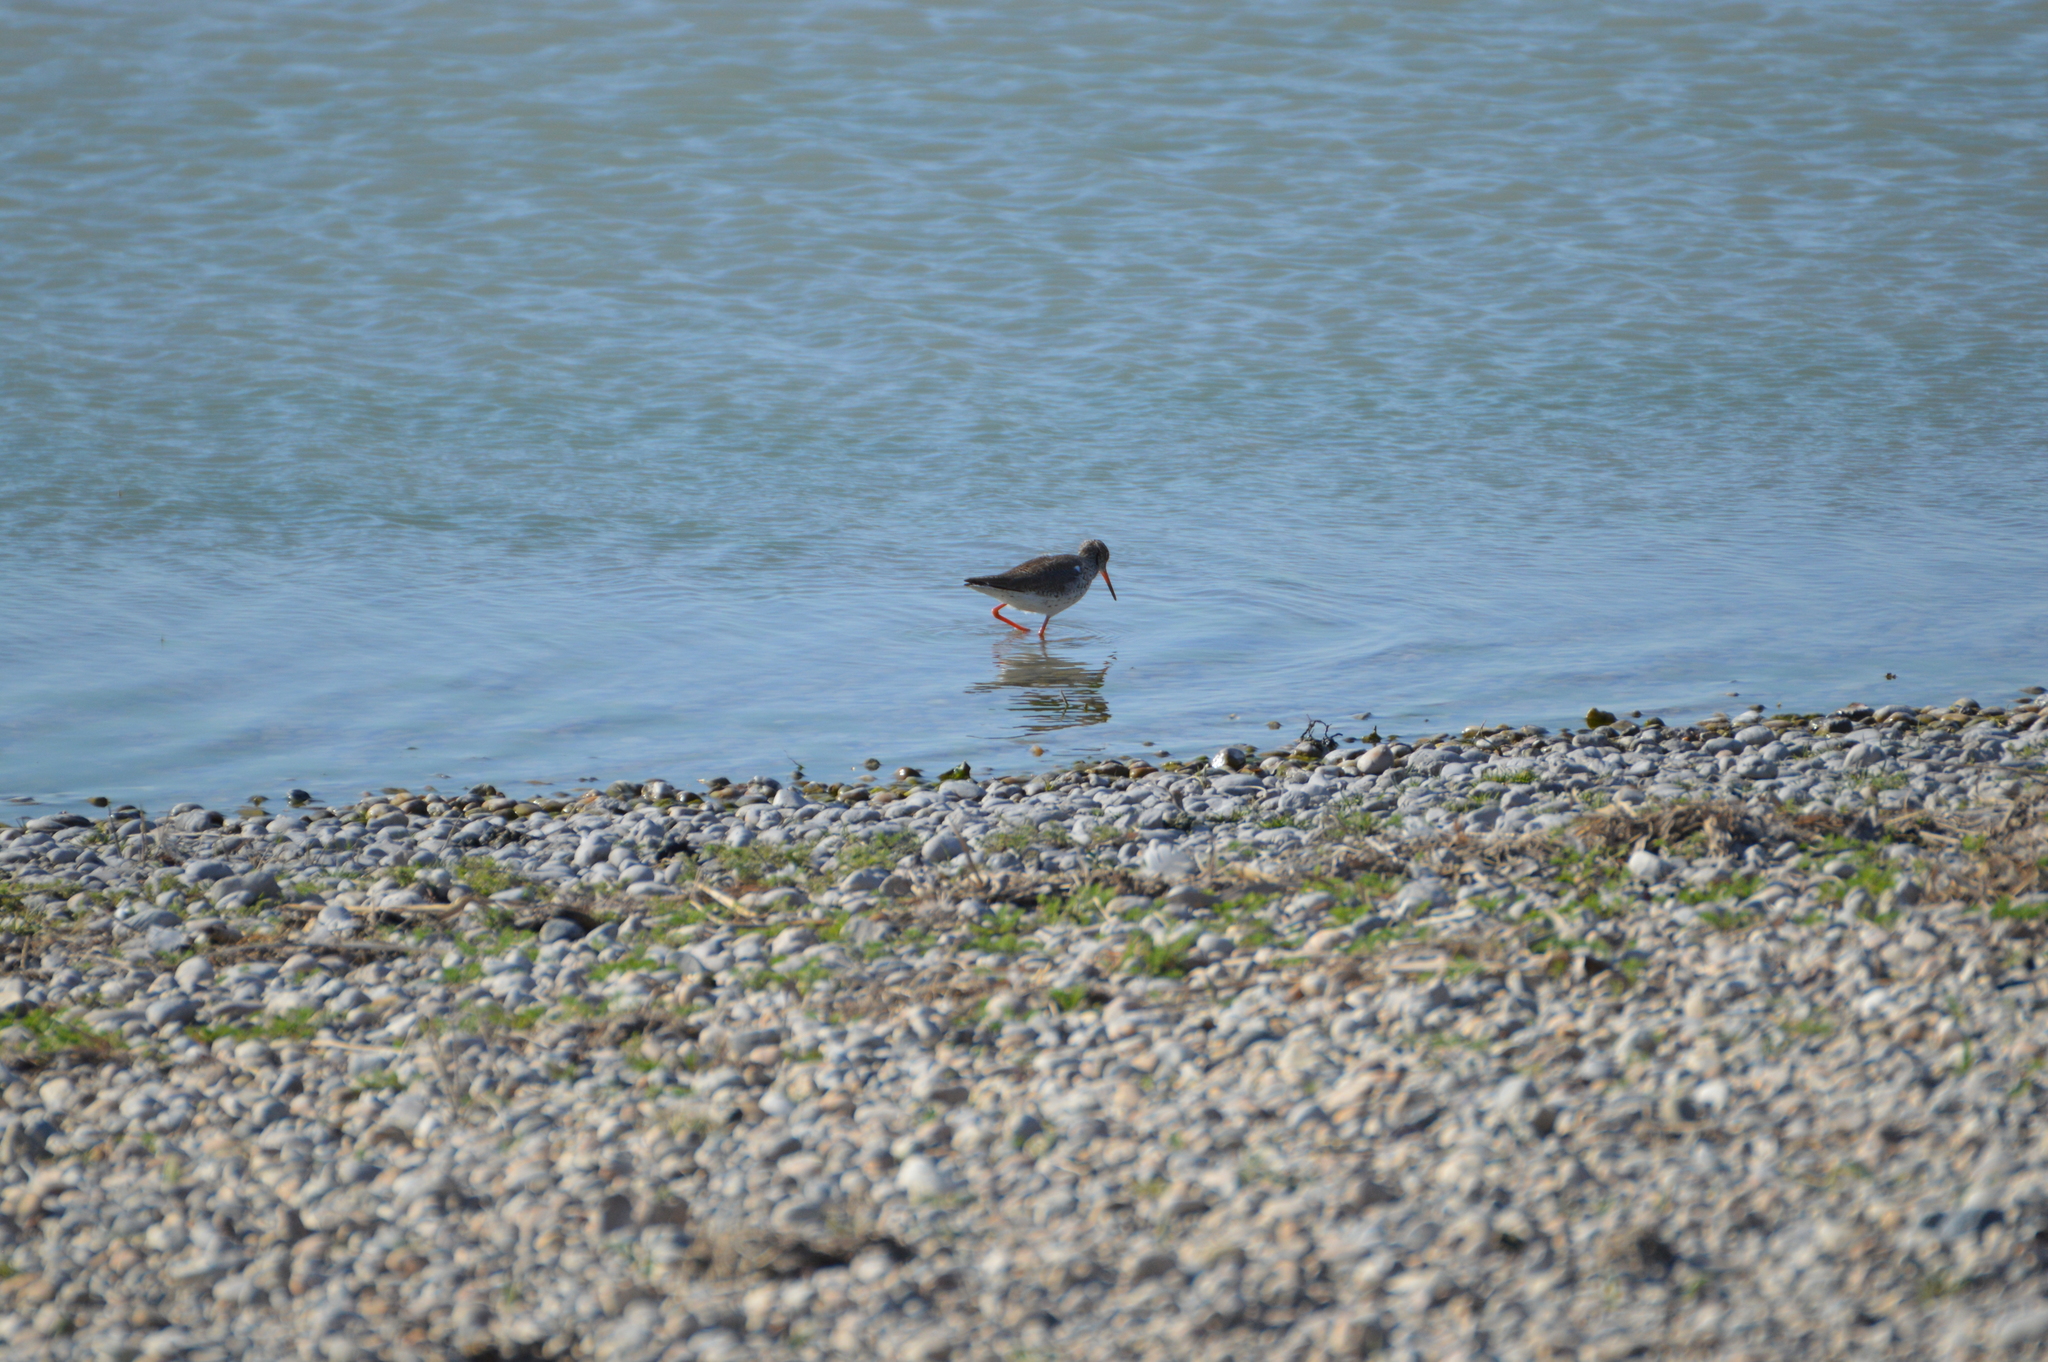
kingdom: Animalia
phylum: Chordata
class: Aves
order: Charadriiformes
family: Scolopacidae
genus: Tringa
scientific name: Tringa totanus
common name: Common redshank
